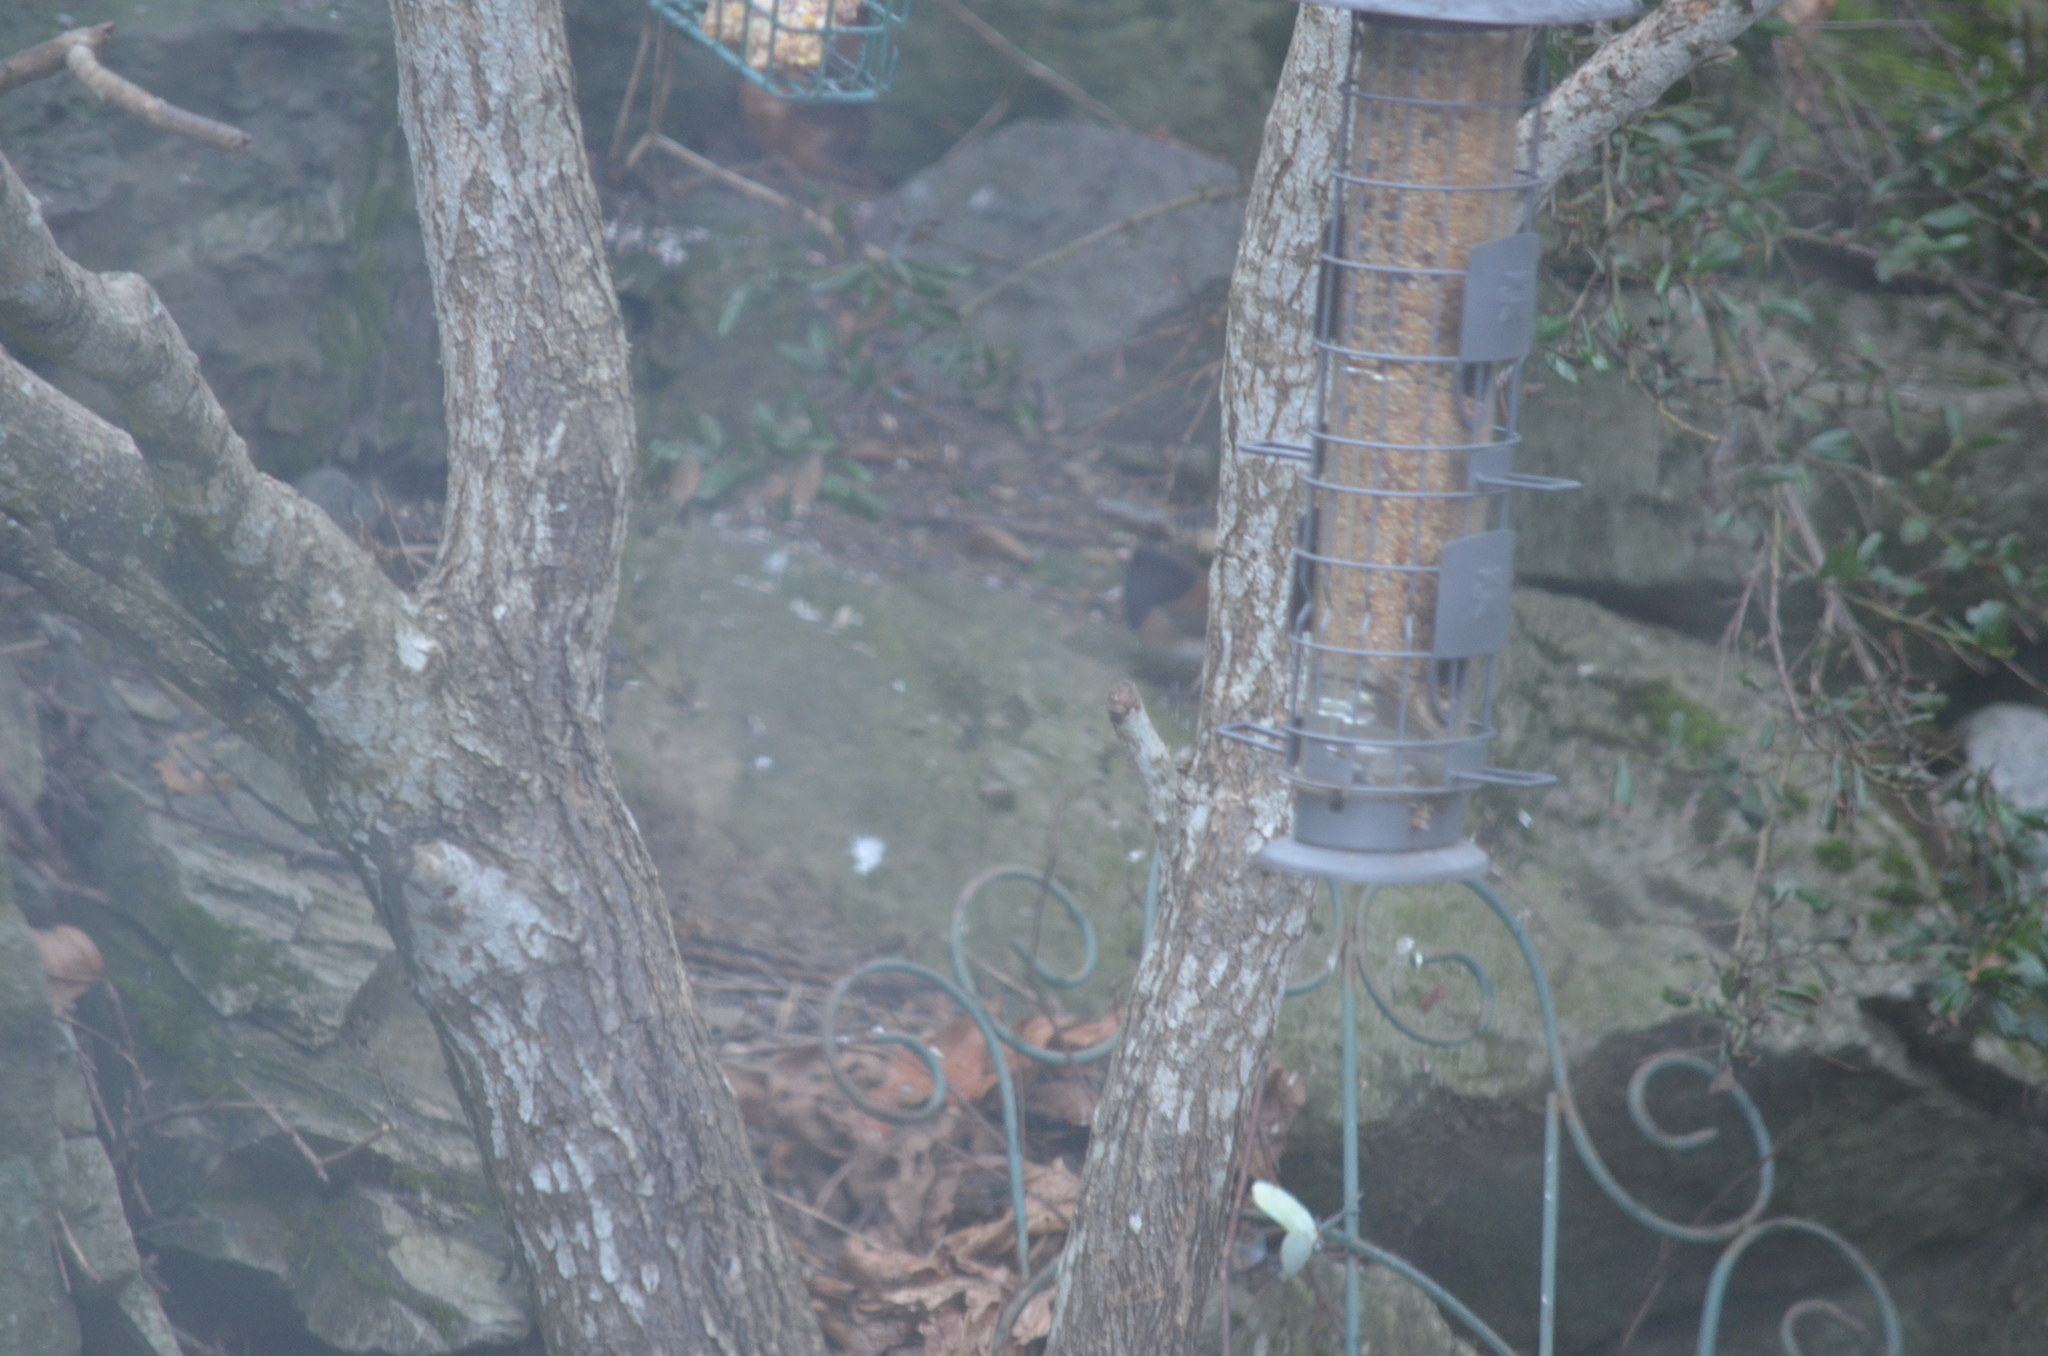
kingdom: Animalia
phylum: Chordata
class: Aves
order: Passeriformes
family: Passerellidae
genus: Junco
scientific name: Junco hyemalis
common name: Dark-eyed junco
